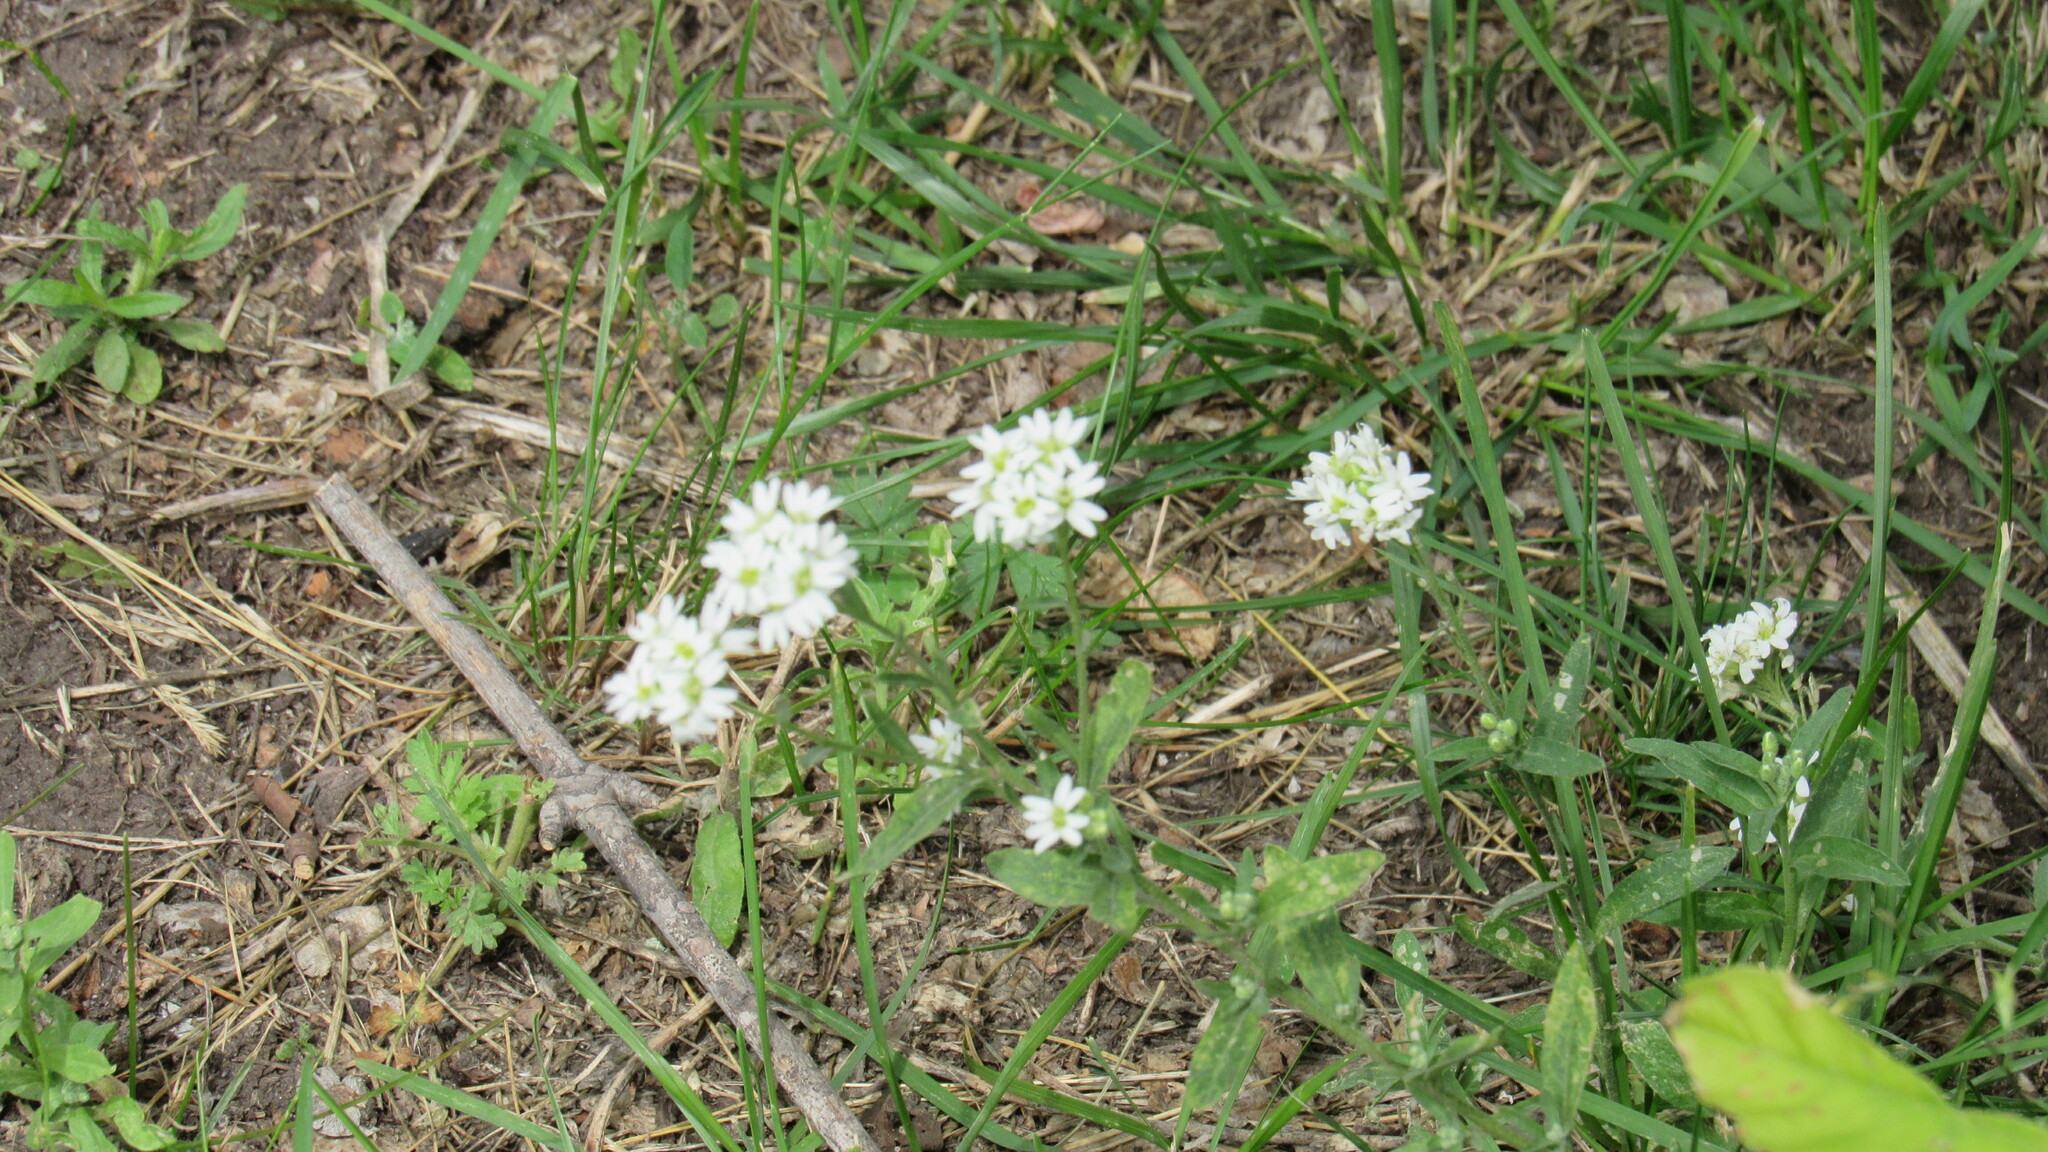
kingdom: Plantae
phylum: Tracheophyta
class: Magnoliopsida
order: Brassicales
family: Brassicaceae
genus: Berteroa
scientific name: Berteroa incana
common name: Hoary alison
